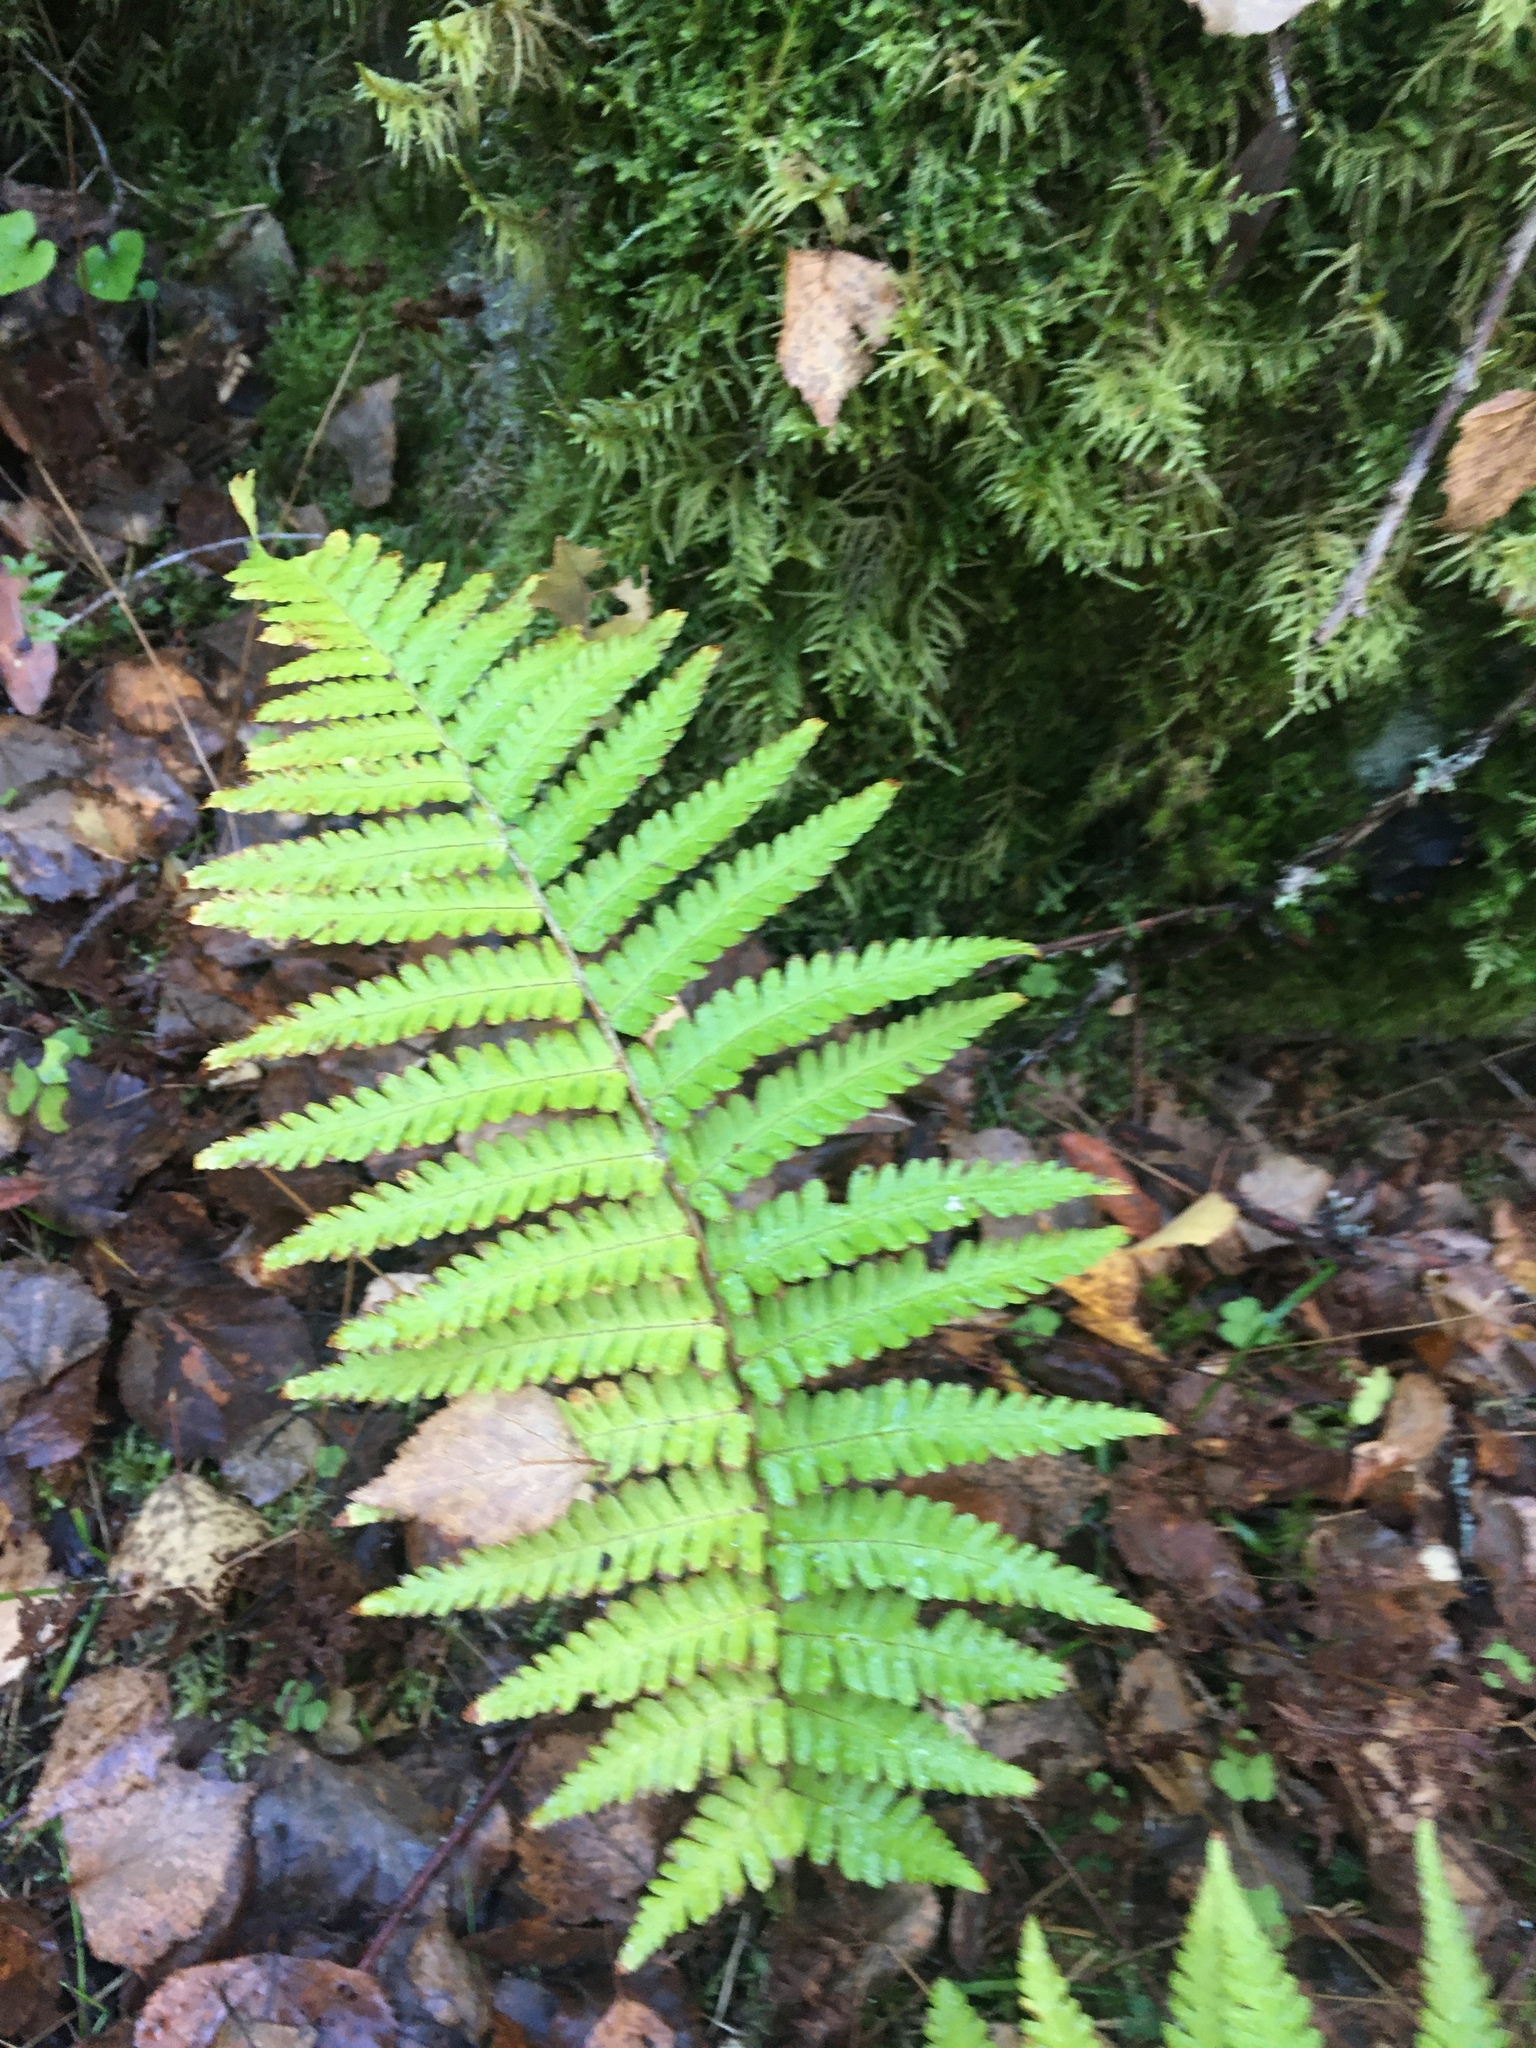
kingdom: Plantae
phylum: Tracheophyta
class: Polypodiopsida
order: Polypodiales
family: Dryopteridaceae
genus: Dryopteris
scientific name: Dryopteris filix-mas
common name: Male fern
